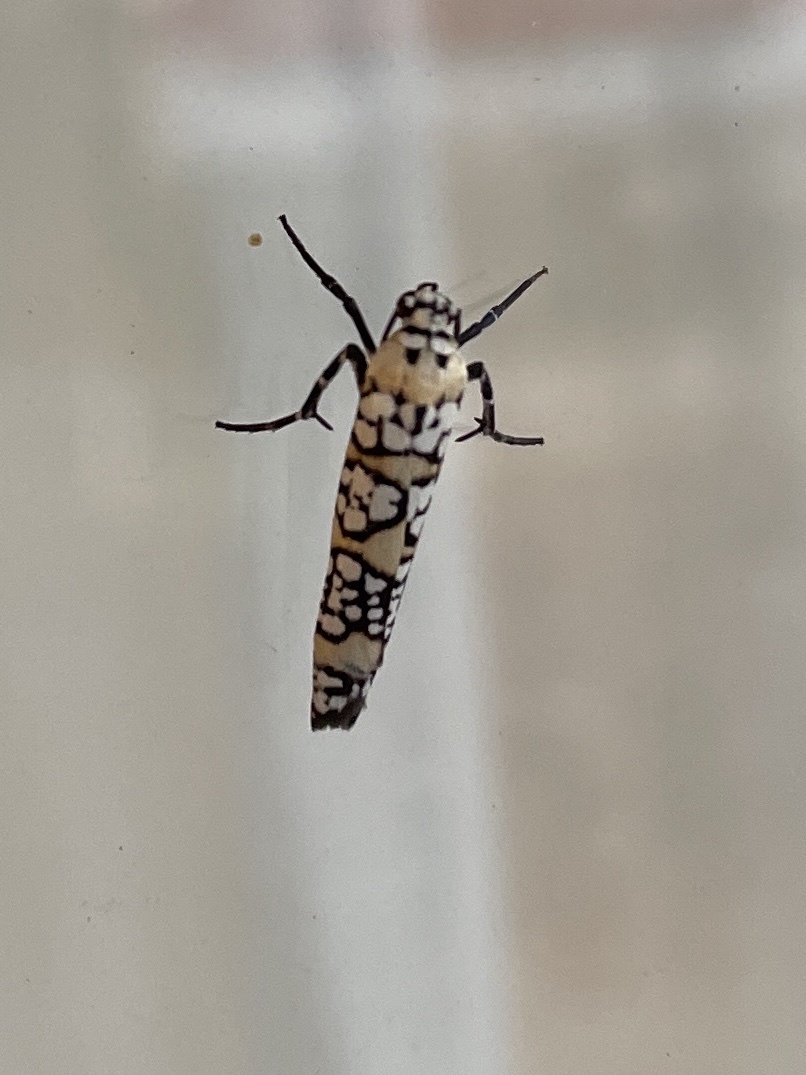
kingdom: Animalia
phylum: Arthropoda
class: Insecta
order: Lepidoptera
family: Attevidae
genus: Atteva
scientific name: Atteva punctella
